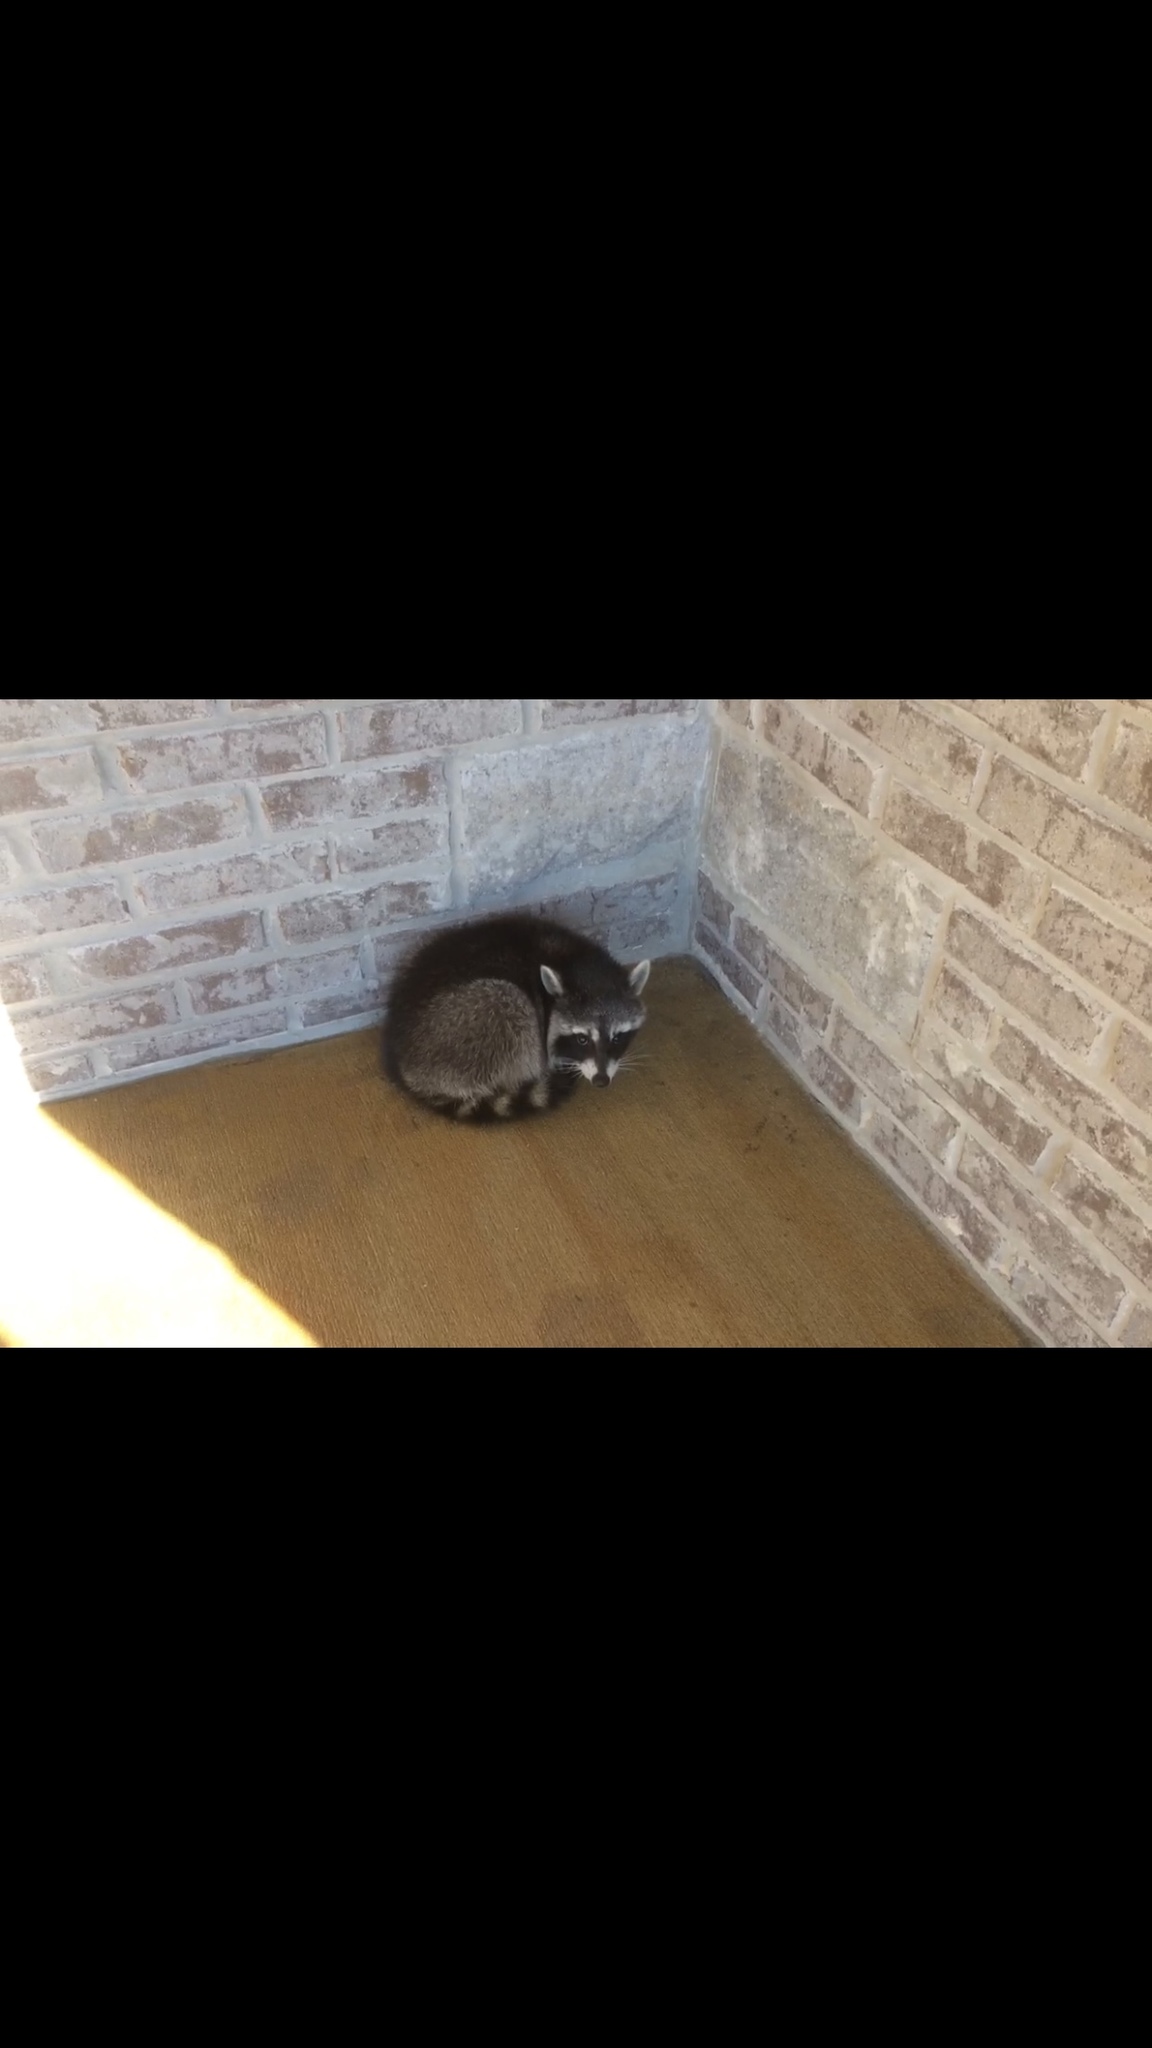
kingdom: Animalia
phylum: Chordata
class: Mammalia
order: Carnivora
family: Procyonidae
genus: Procyon
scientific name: Procyon lotor
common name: Raccoon
